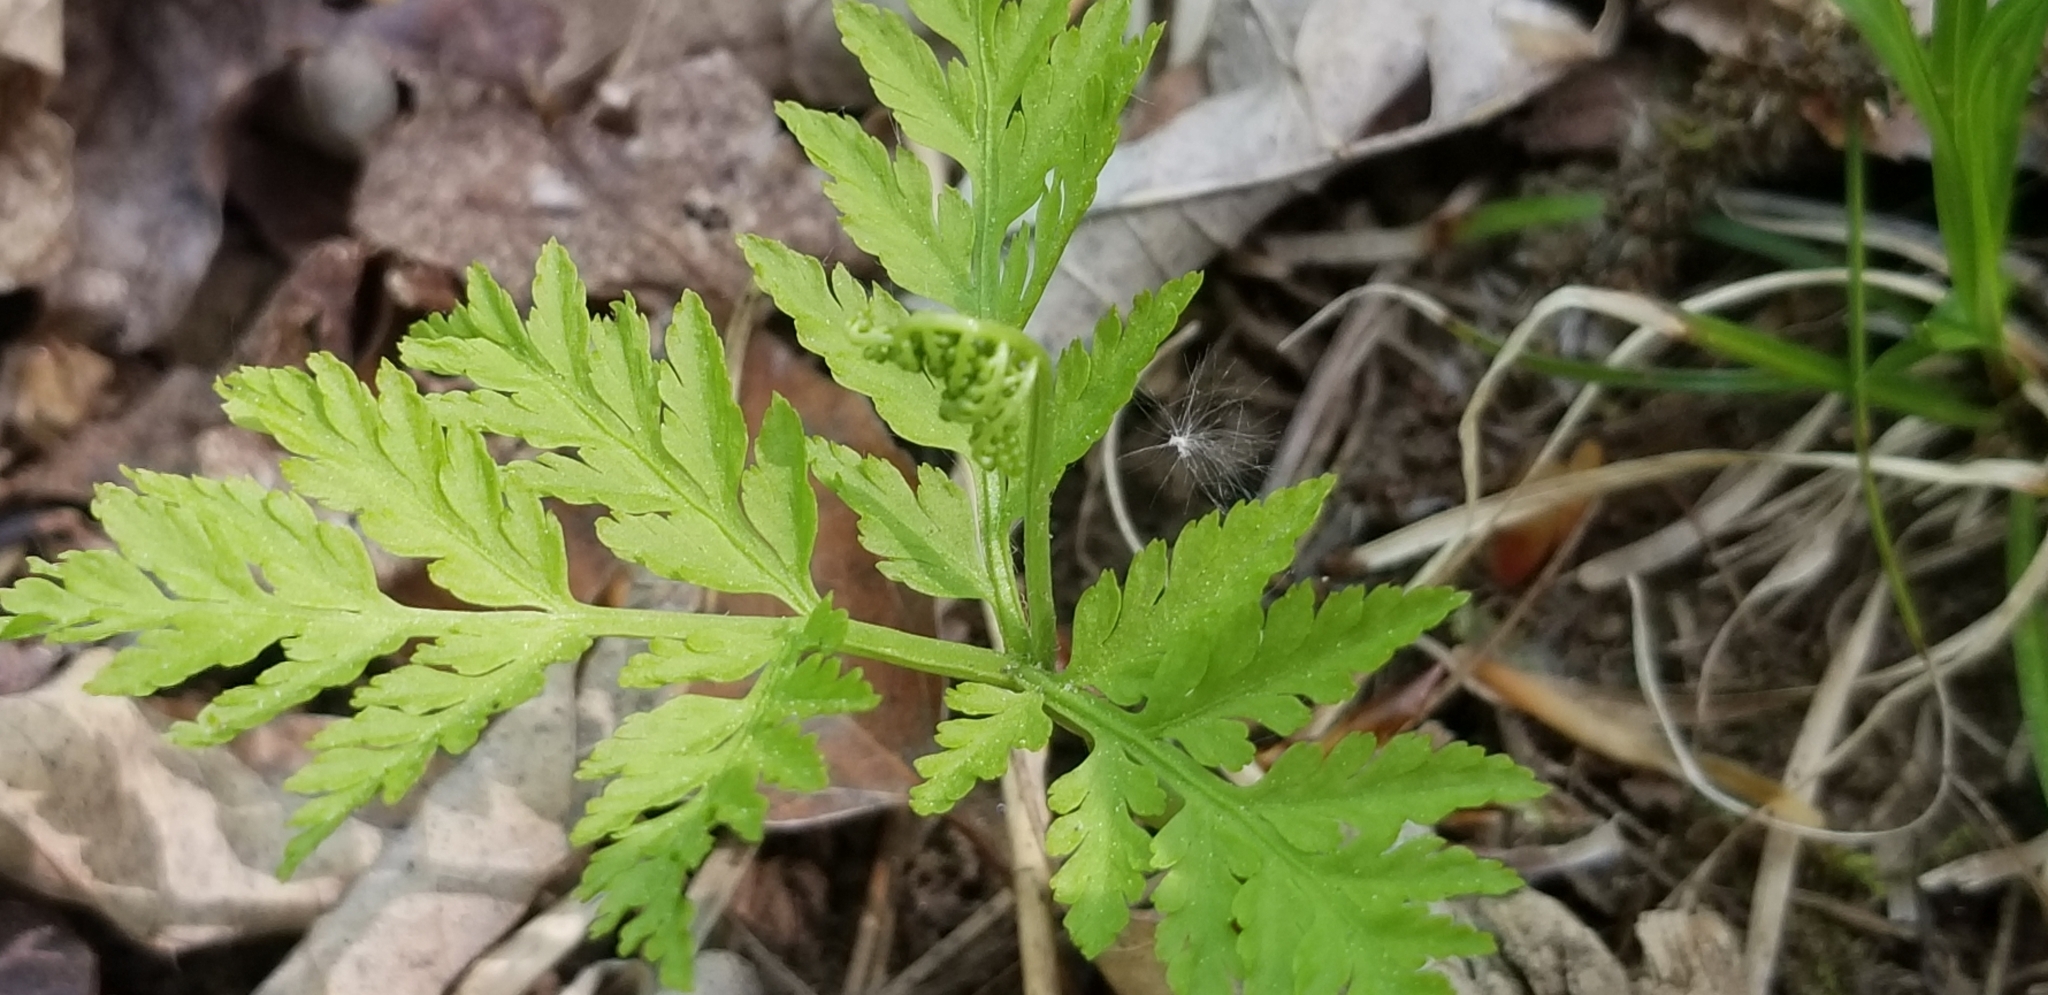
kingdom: Plantae
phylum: Tracheophyta
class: Polypodiopsida
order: Ophioglossales
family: Ophioglossaceae
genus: Botrypus
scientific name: Botrypus virginianus
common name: Common grapefern
